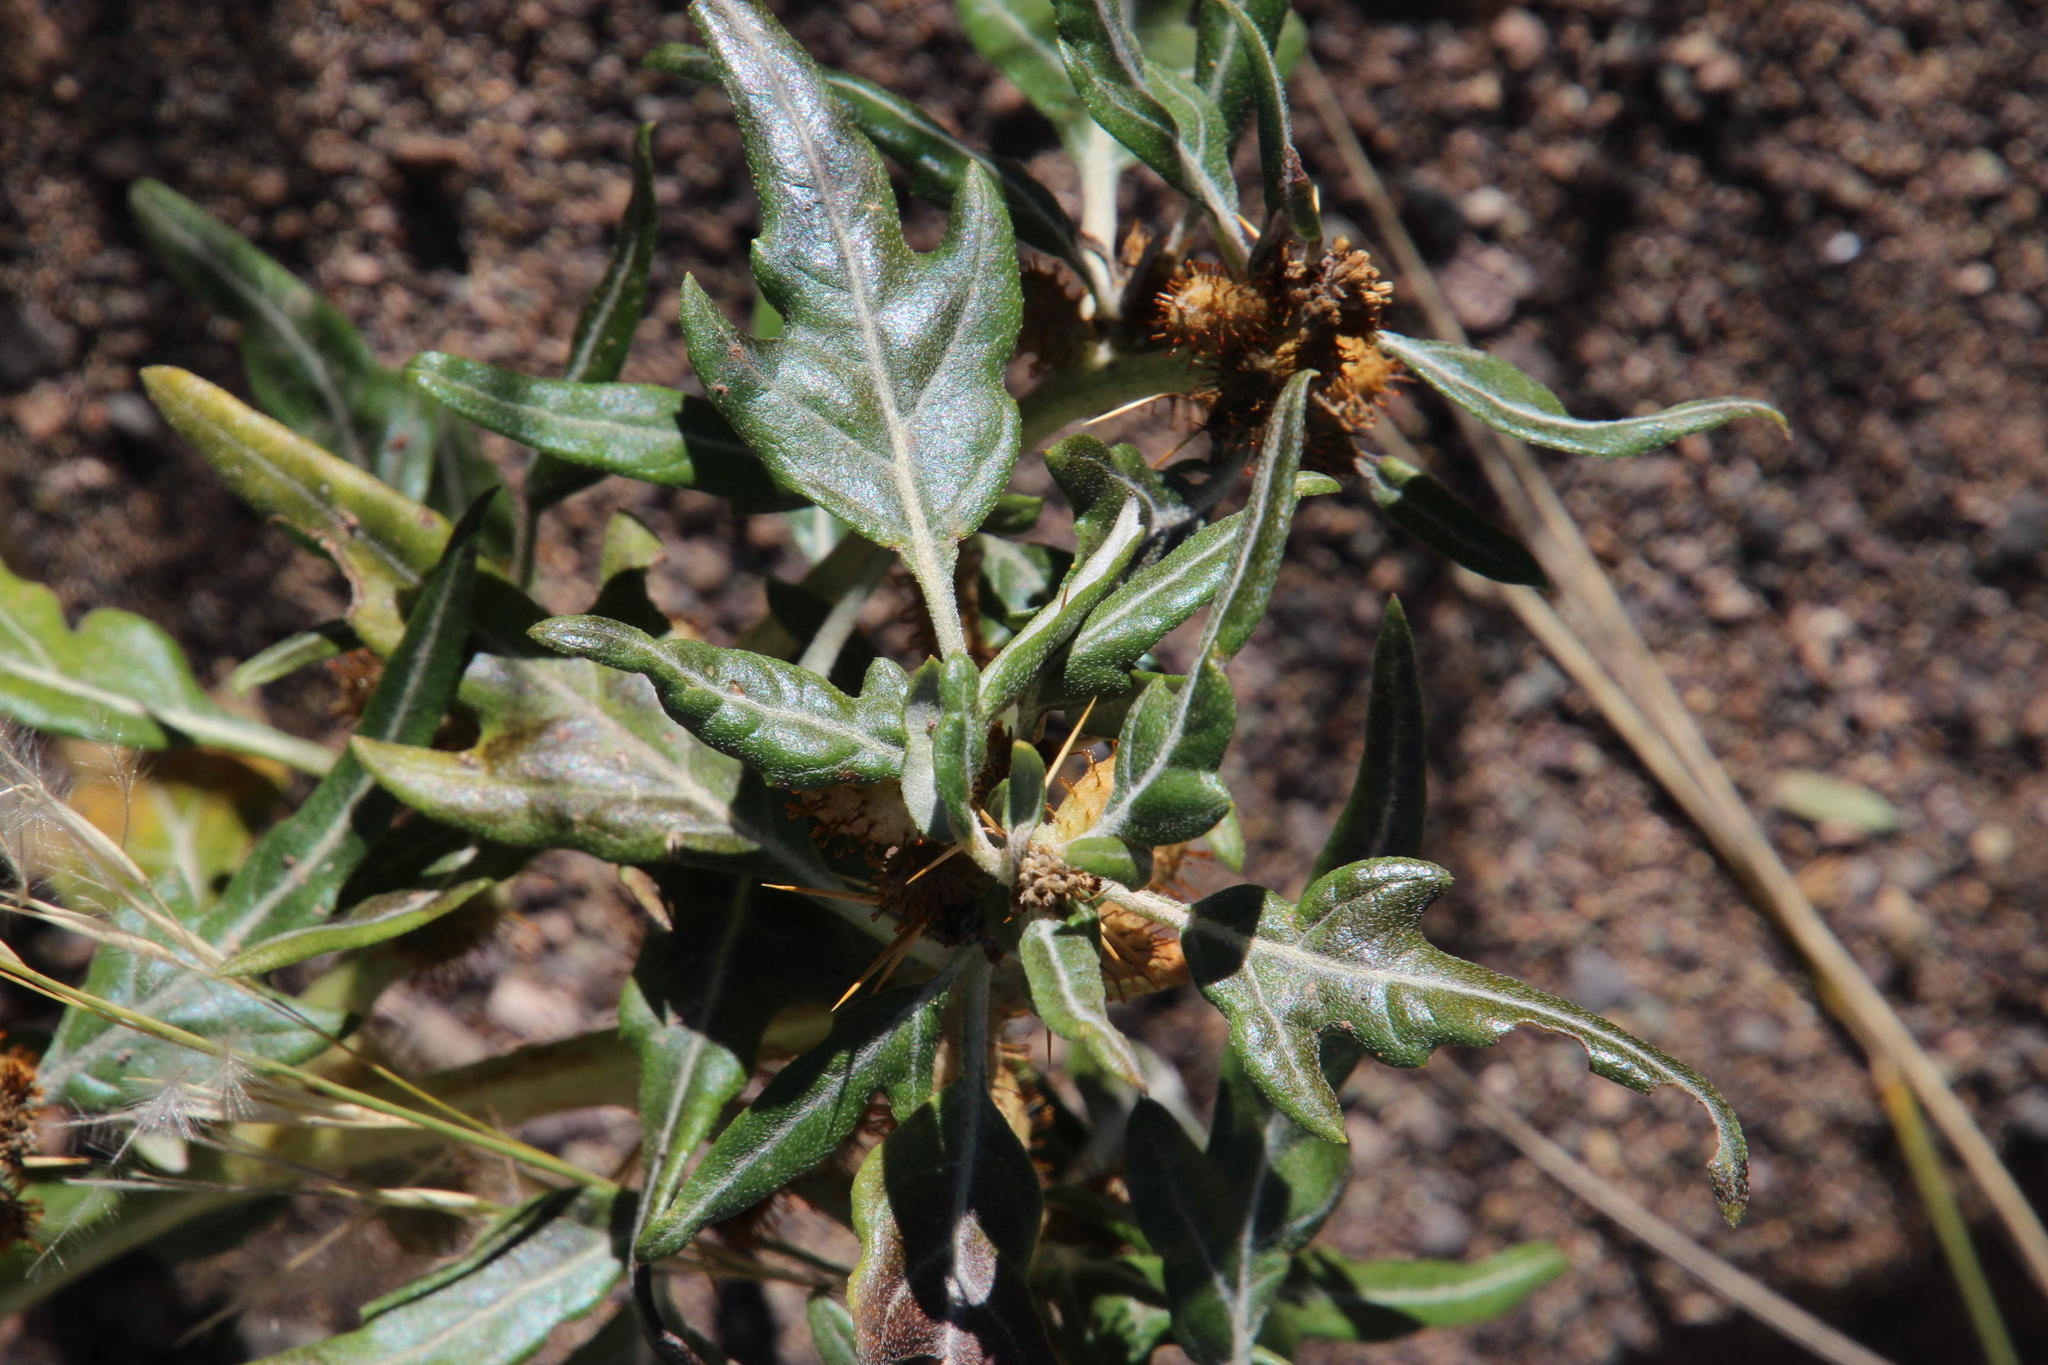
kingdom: Plantae
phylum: Tracheophyta
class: Magnoliopsida
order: Asterales
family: Asteraceae
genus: Xanthium
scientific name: Xanthium spinosum
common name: Spiny cocklebur
